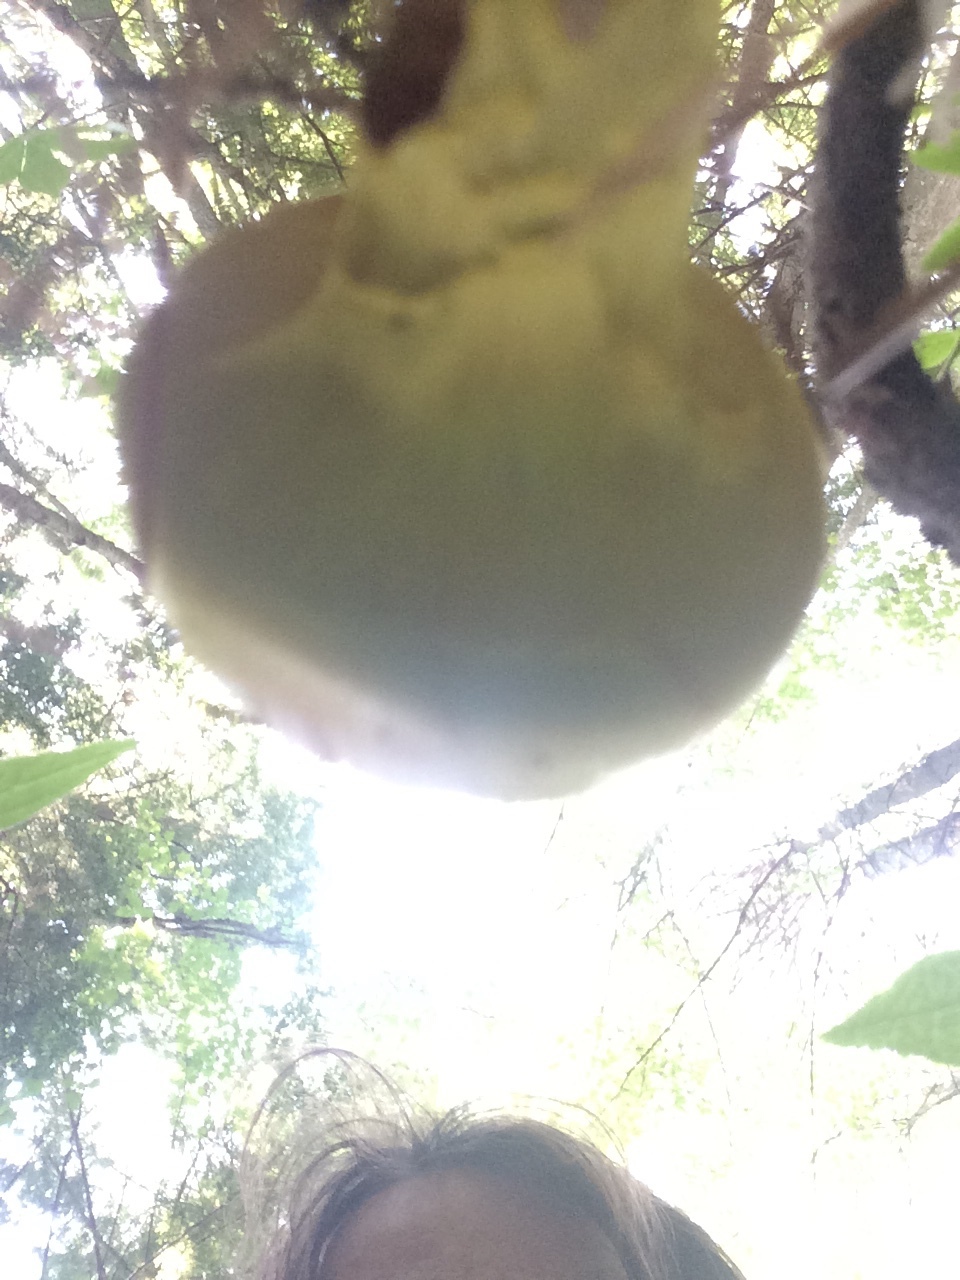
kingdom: Fungi
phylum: Basidiomycota
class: Agaricomycetes
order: Boletales
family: Boletaceae
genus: Pulveroboletus
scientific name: Pulveroboletus ravenelii
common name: Powdery sulfur bolete
